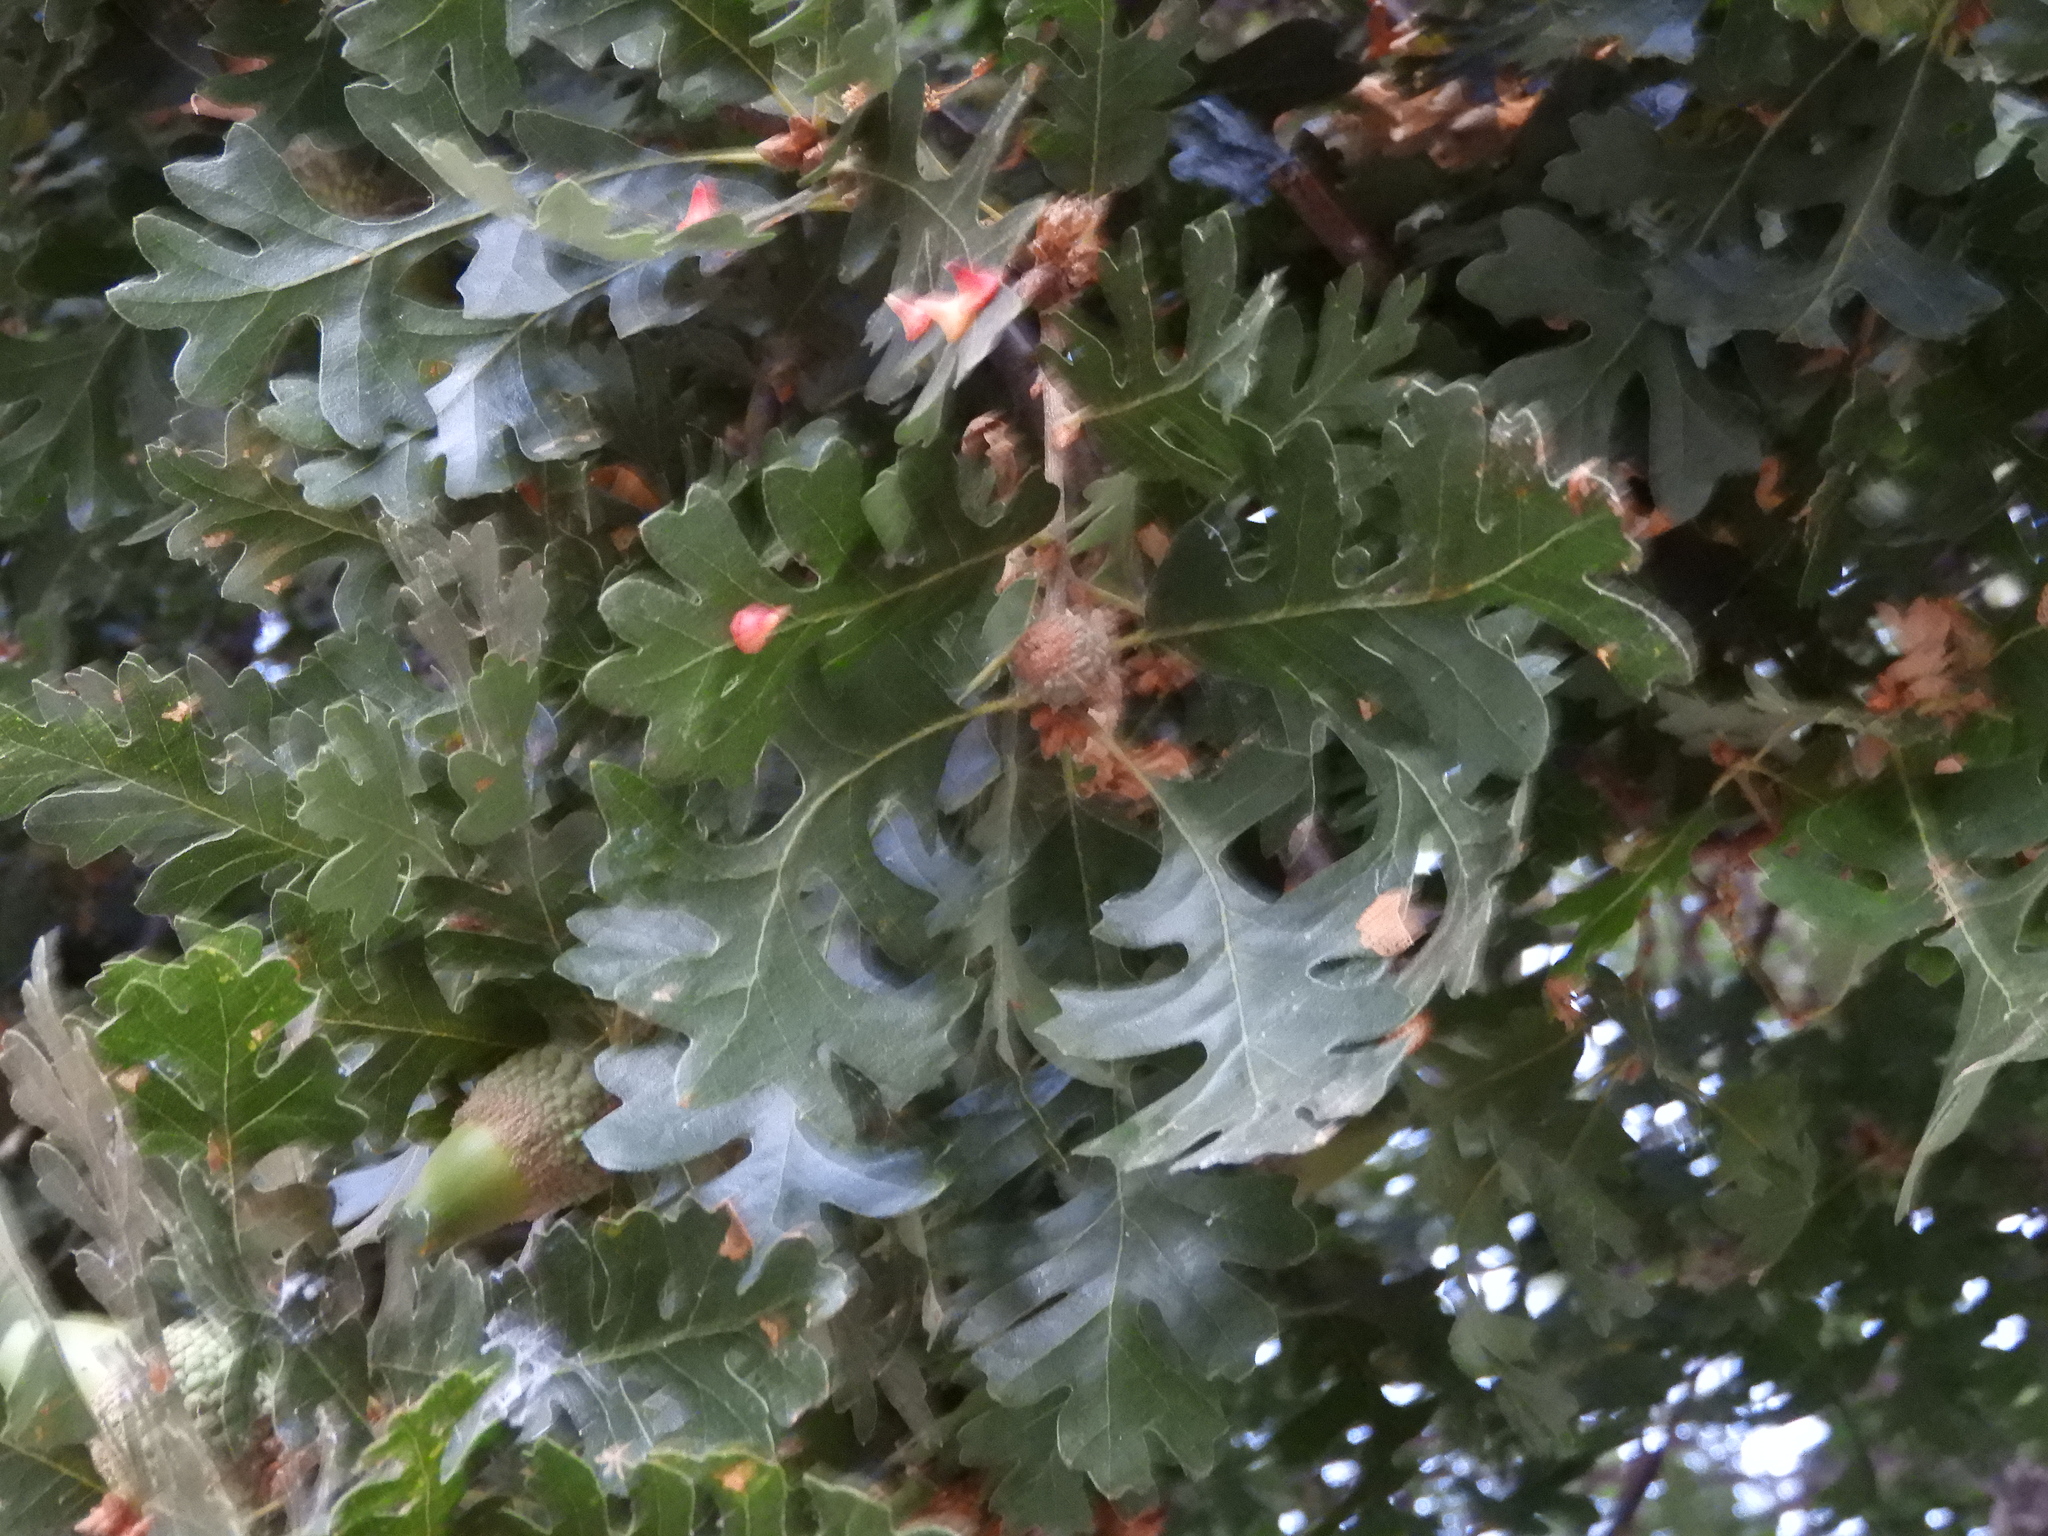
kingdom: Plantae
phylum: Tracheophyta
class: Magnoliopsida
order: Fagales
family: Fagaceae
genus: Quercus
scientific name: Quercus lobata
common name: Valley oak
